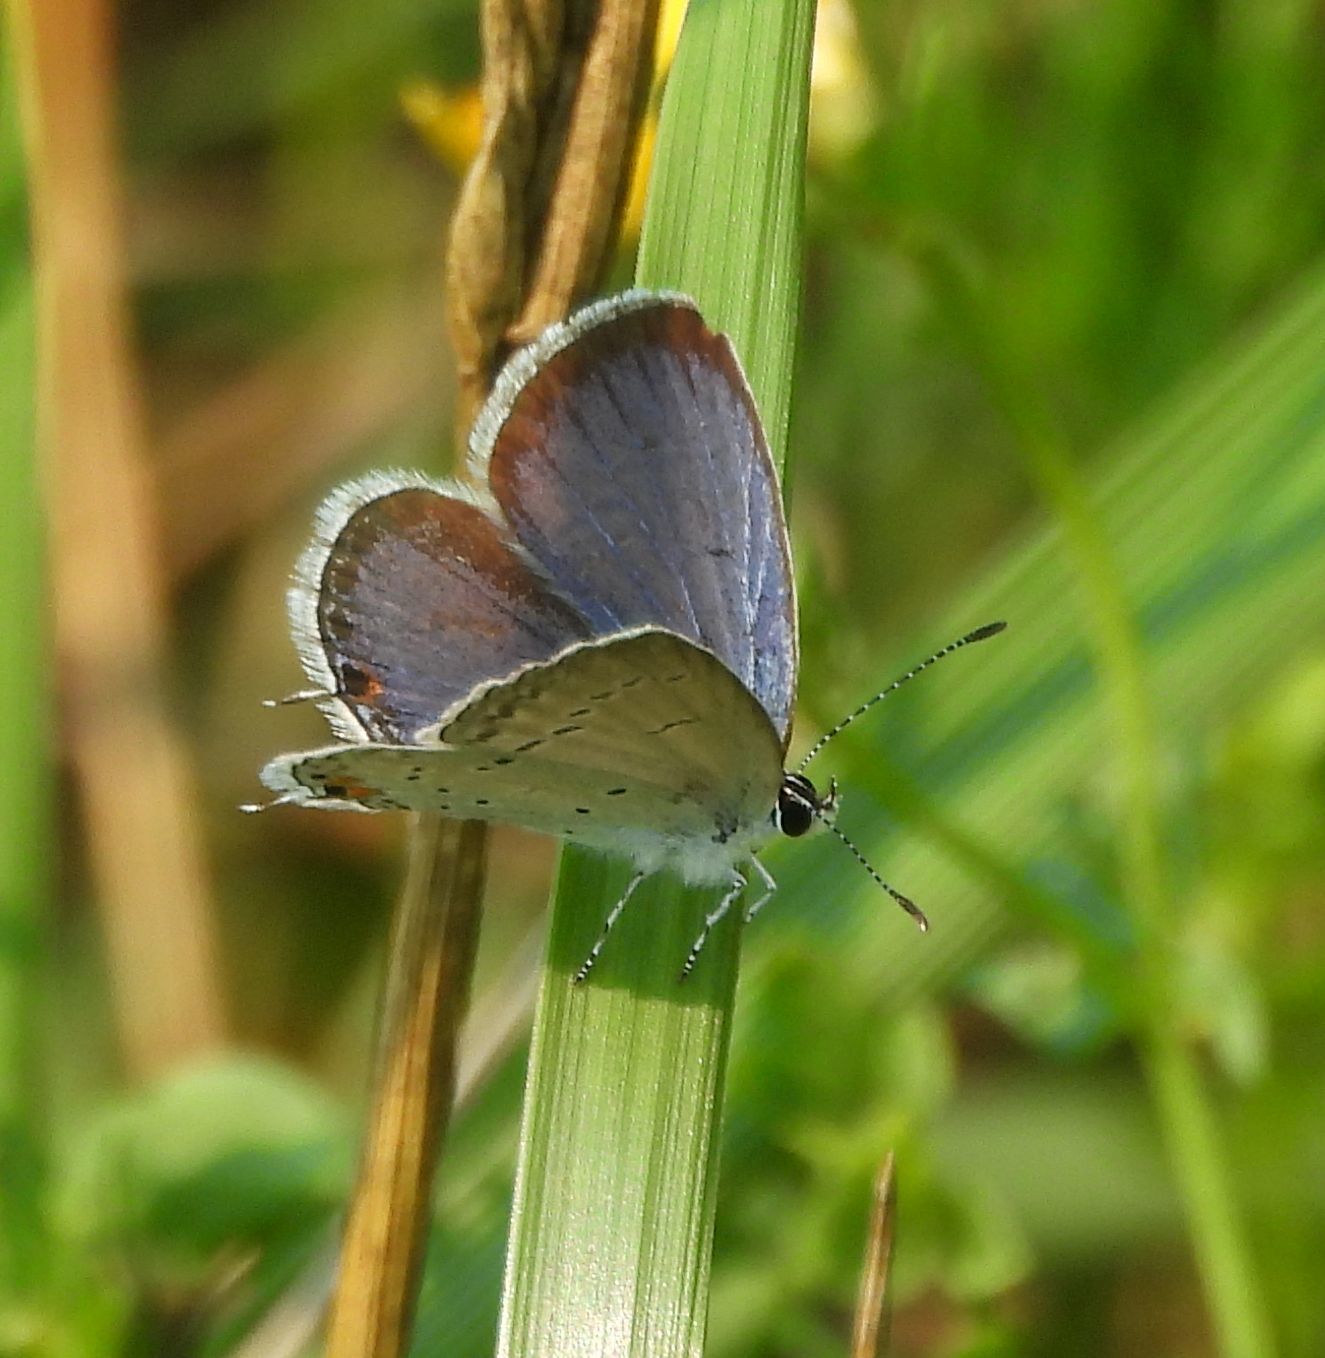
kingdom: Animalia
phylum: Arthropoda
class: Insecta
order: Lepidoptera
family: Lycaenidae
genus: Elkalyce
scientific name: Elkalyce comyntas
